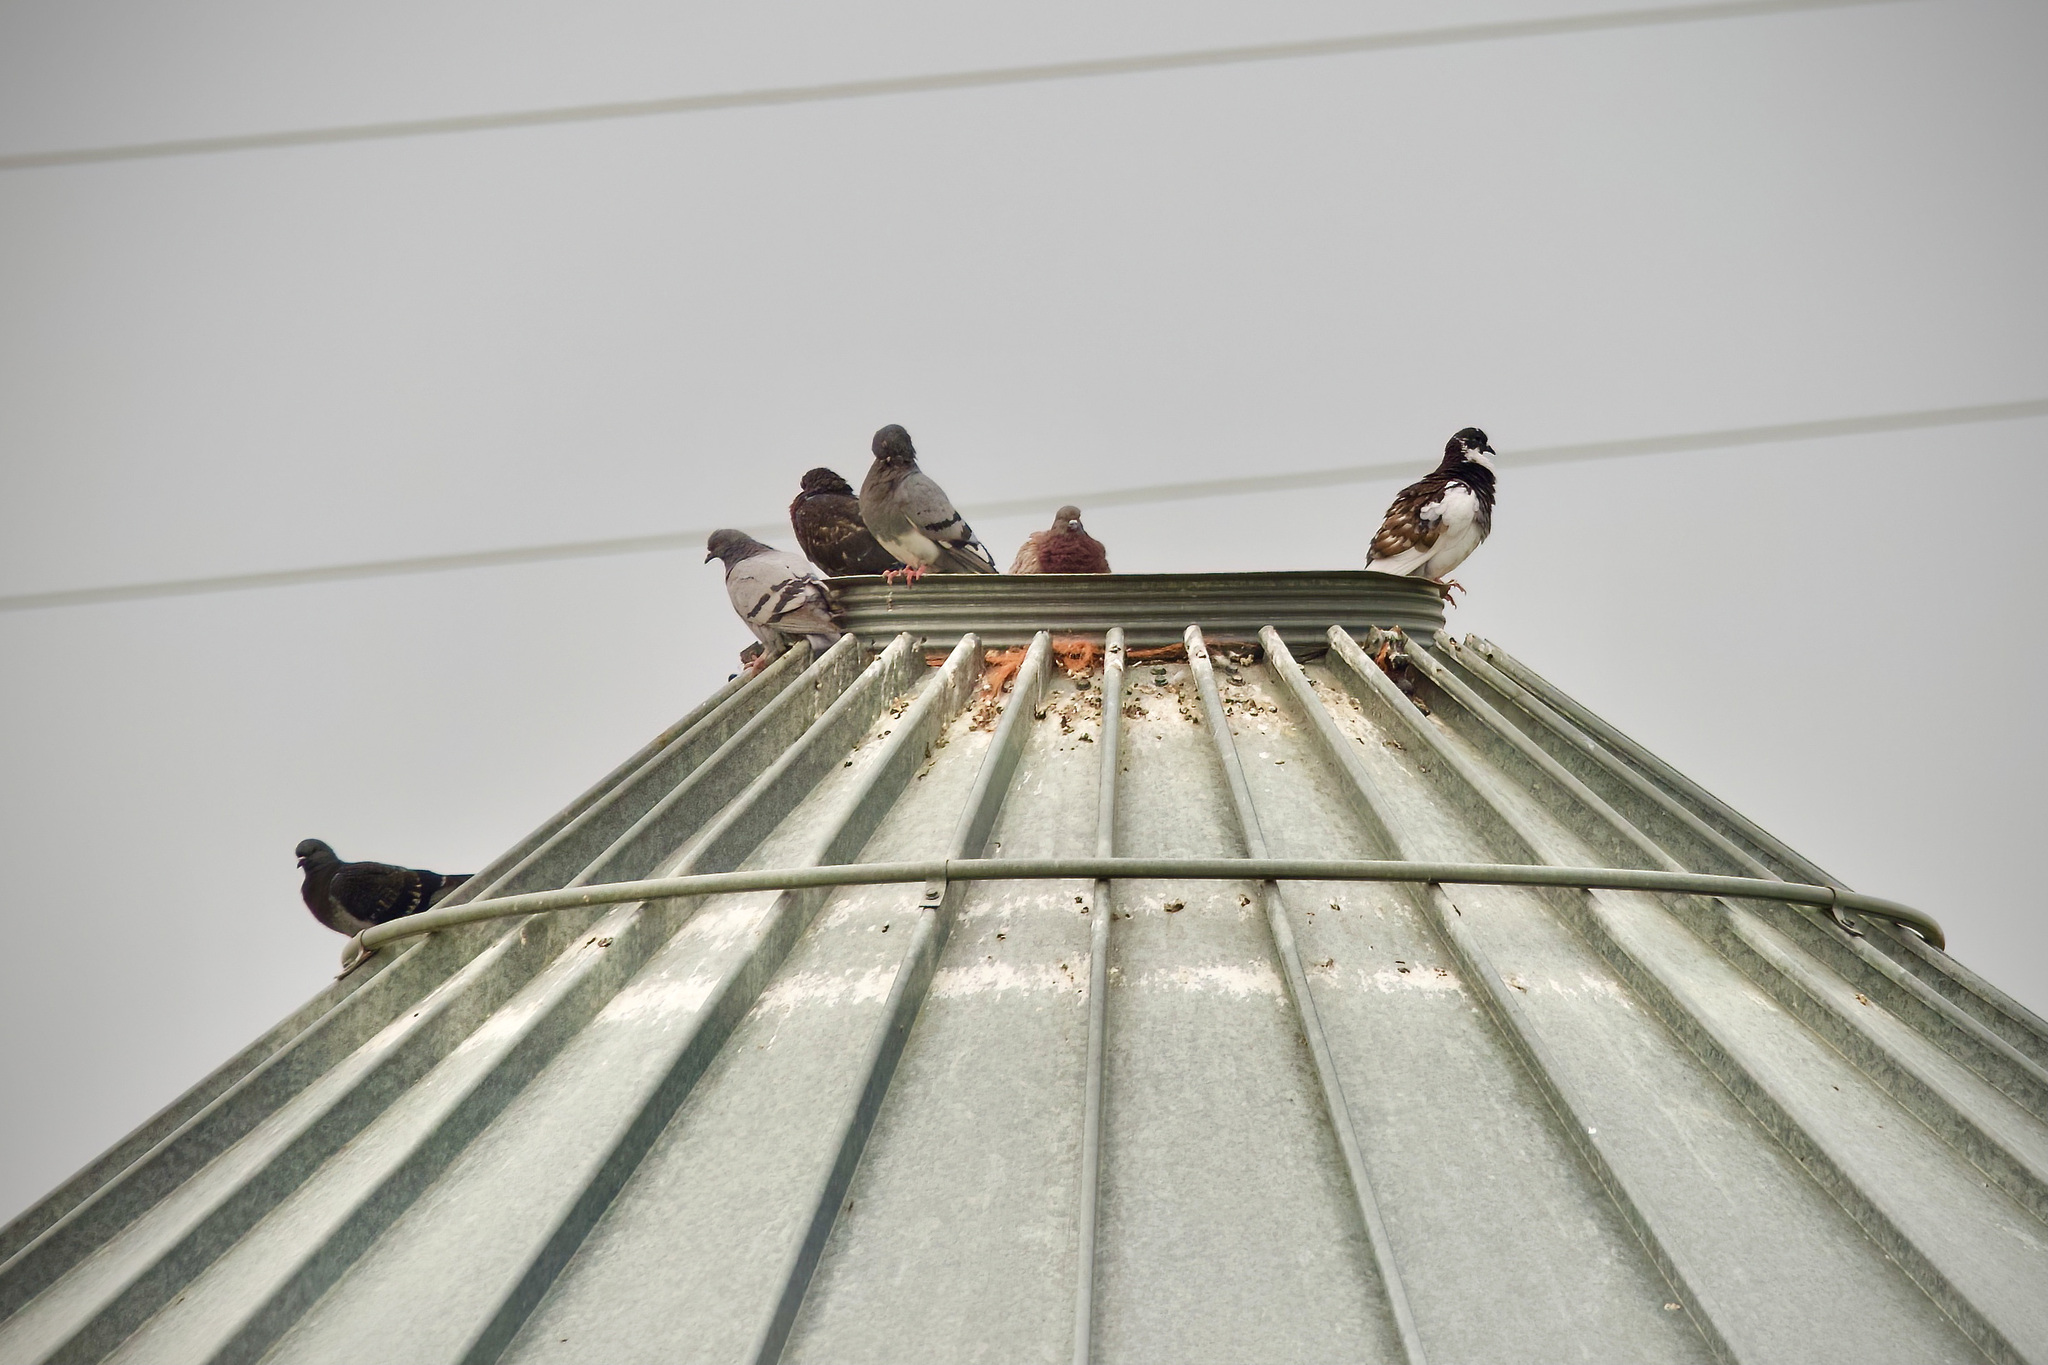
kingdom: Animalia
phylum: Chordata
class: Aves
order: Columbiformes
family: Columbidae
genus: Columba
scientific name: Columba livia
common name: Rock pigeon
